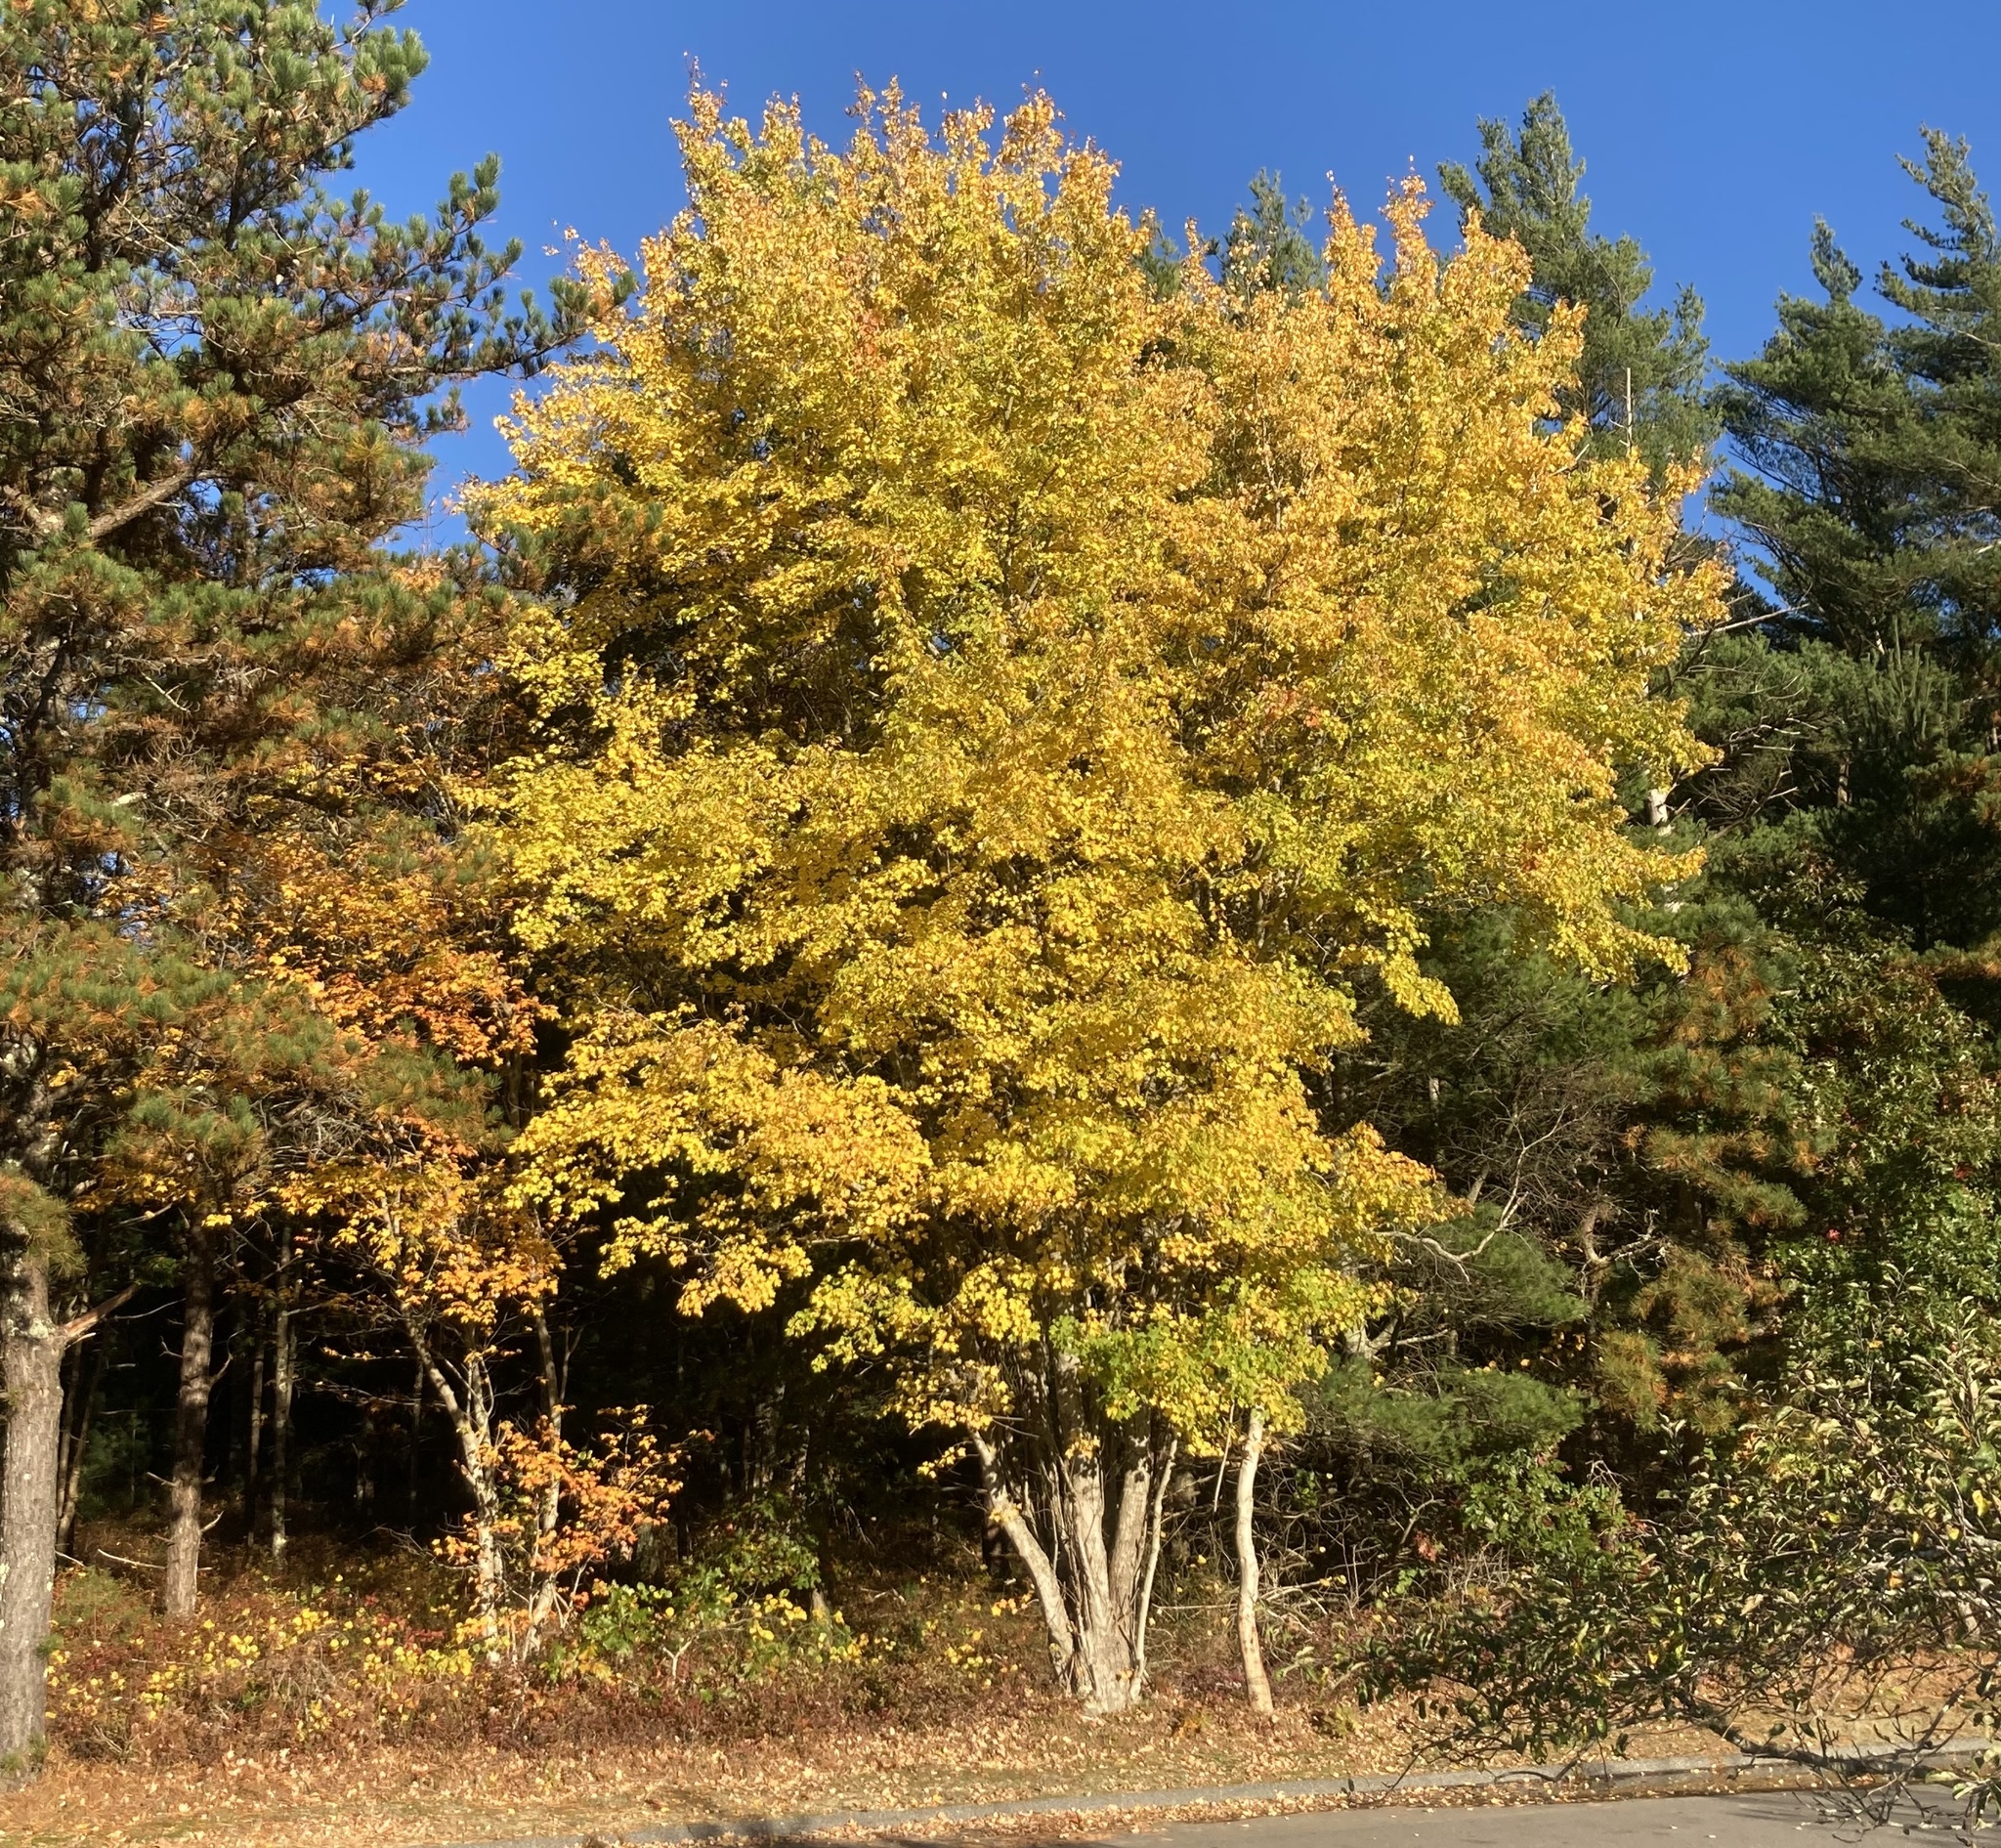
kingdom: Plantae
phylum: Tracheophyta
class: Magnoliopsida
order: Sapindales
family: Sapindaceae
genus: Acer
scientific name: Acer rubrum
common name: Red maple
